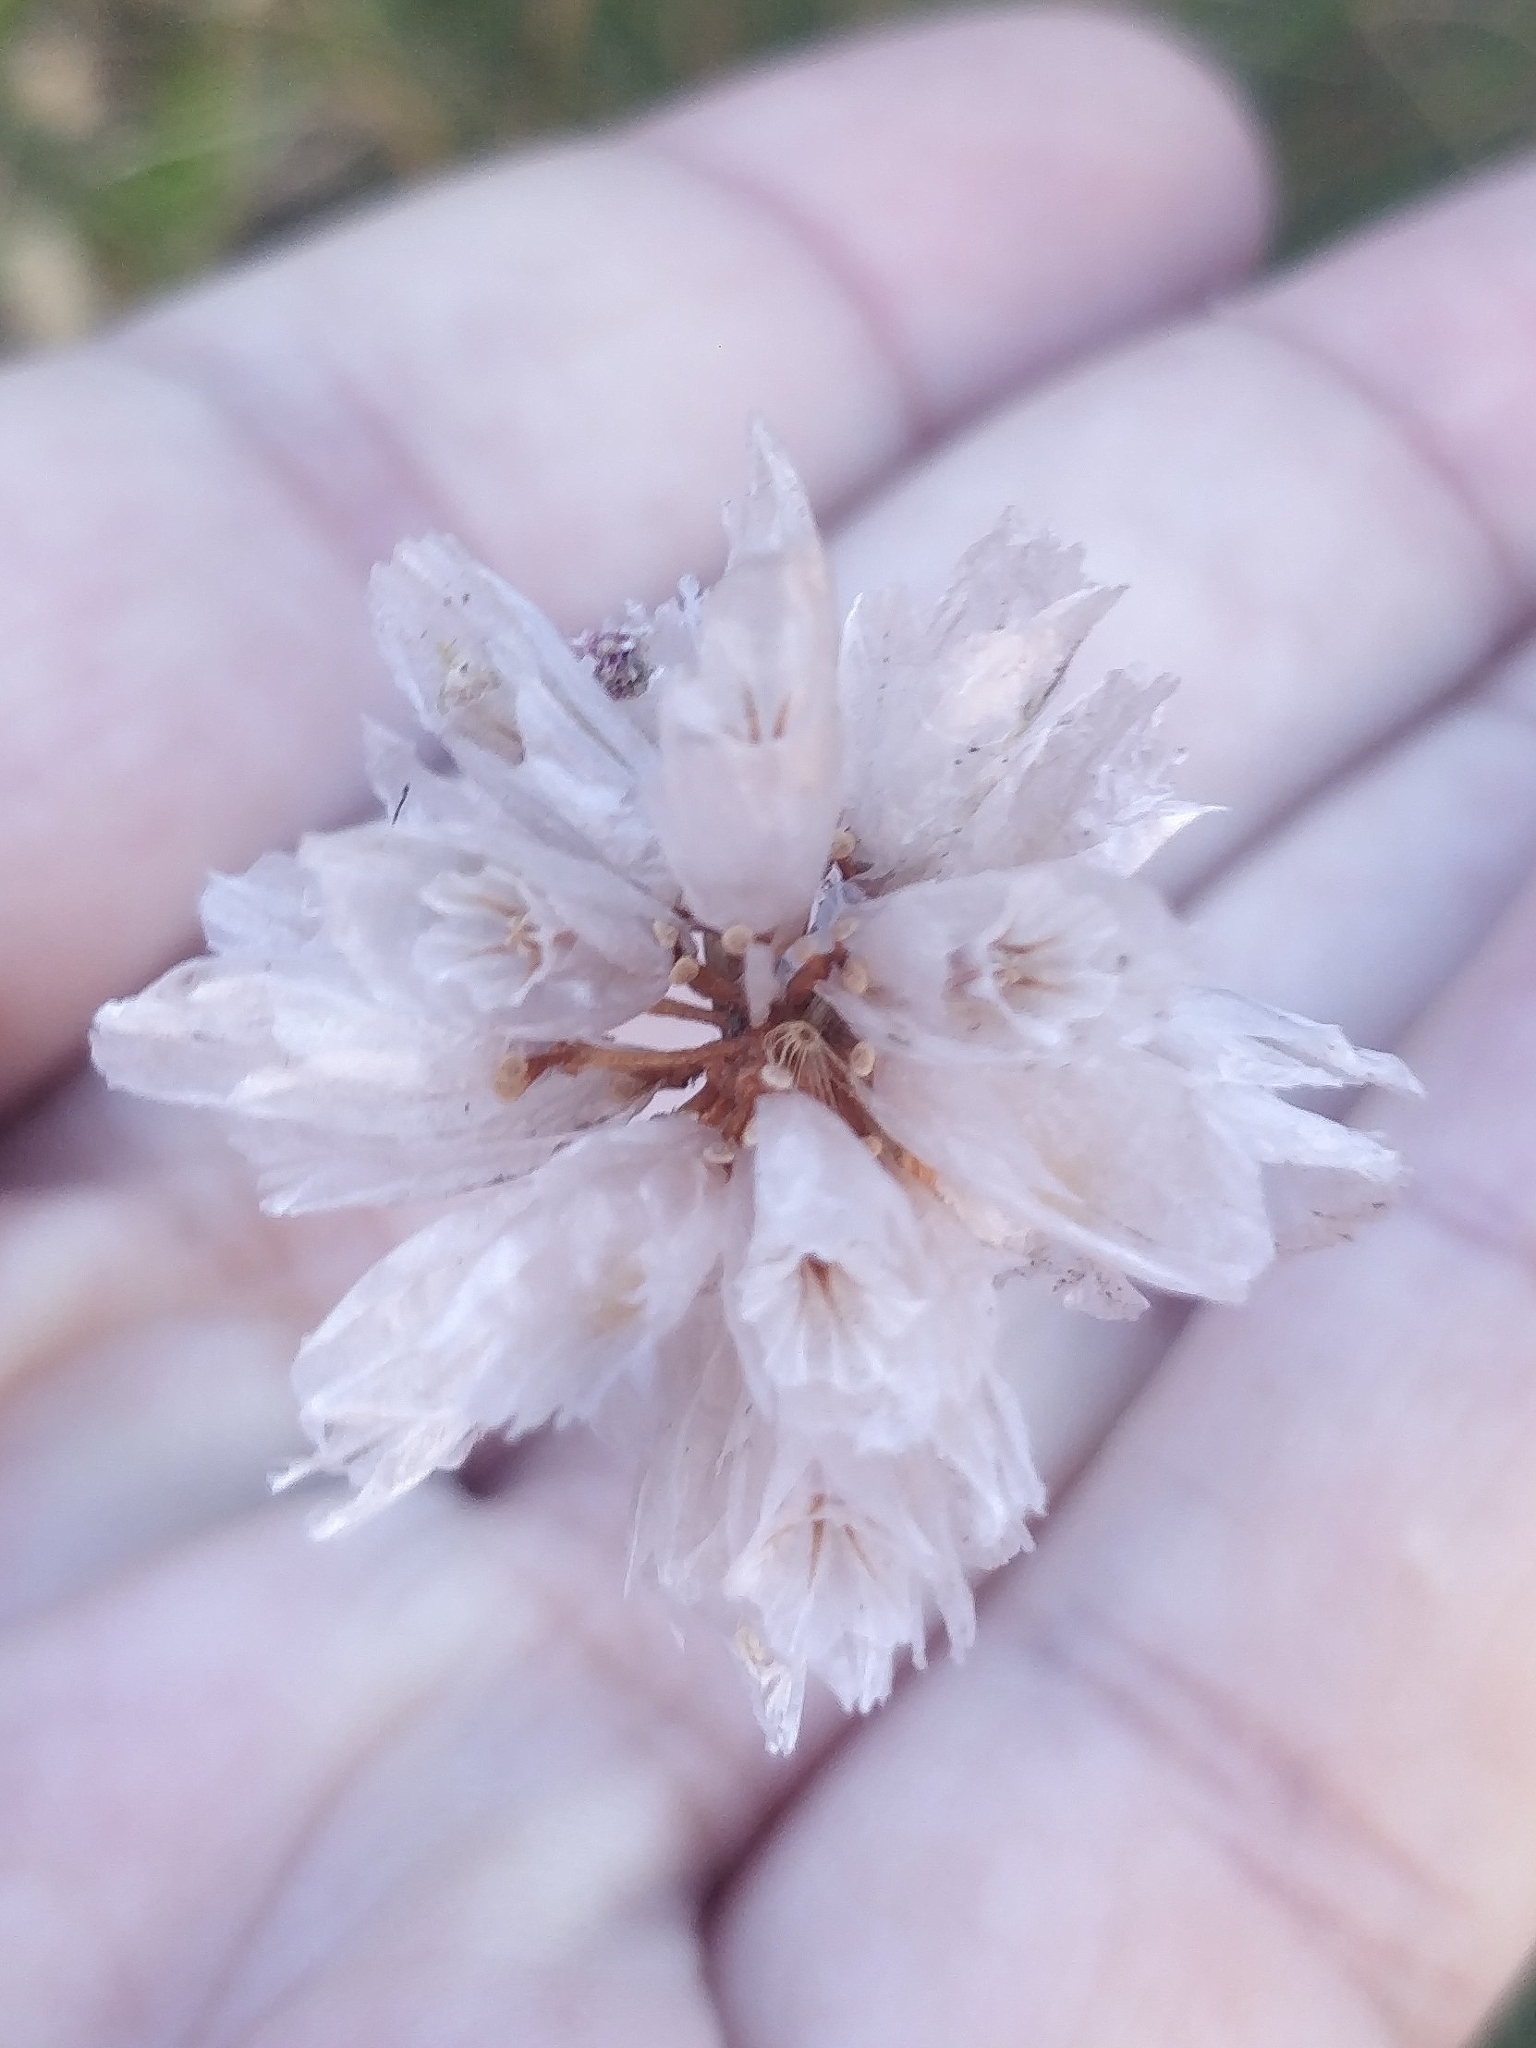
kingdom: Plantae
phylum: Tracheophyta
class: Magnoliopsida
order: Caryophyllales
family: Plumbaginaceae
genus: Armeria
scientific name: Armeria maderensis
